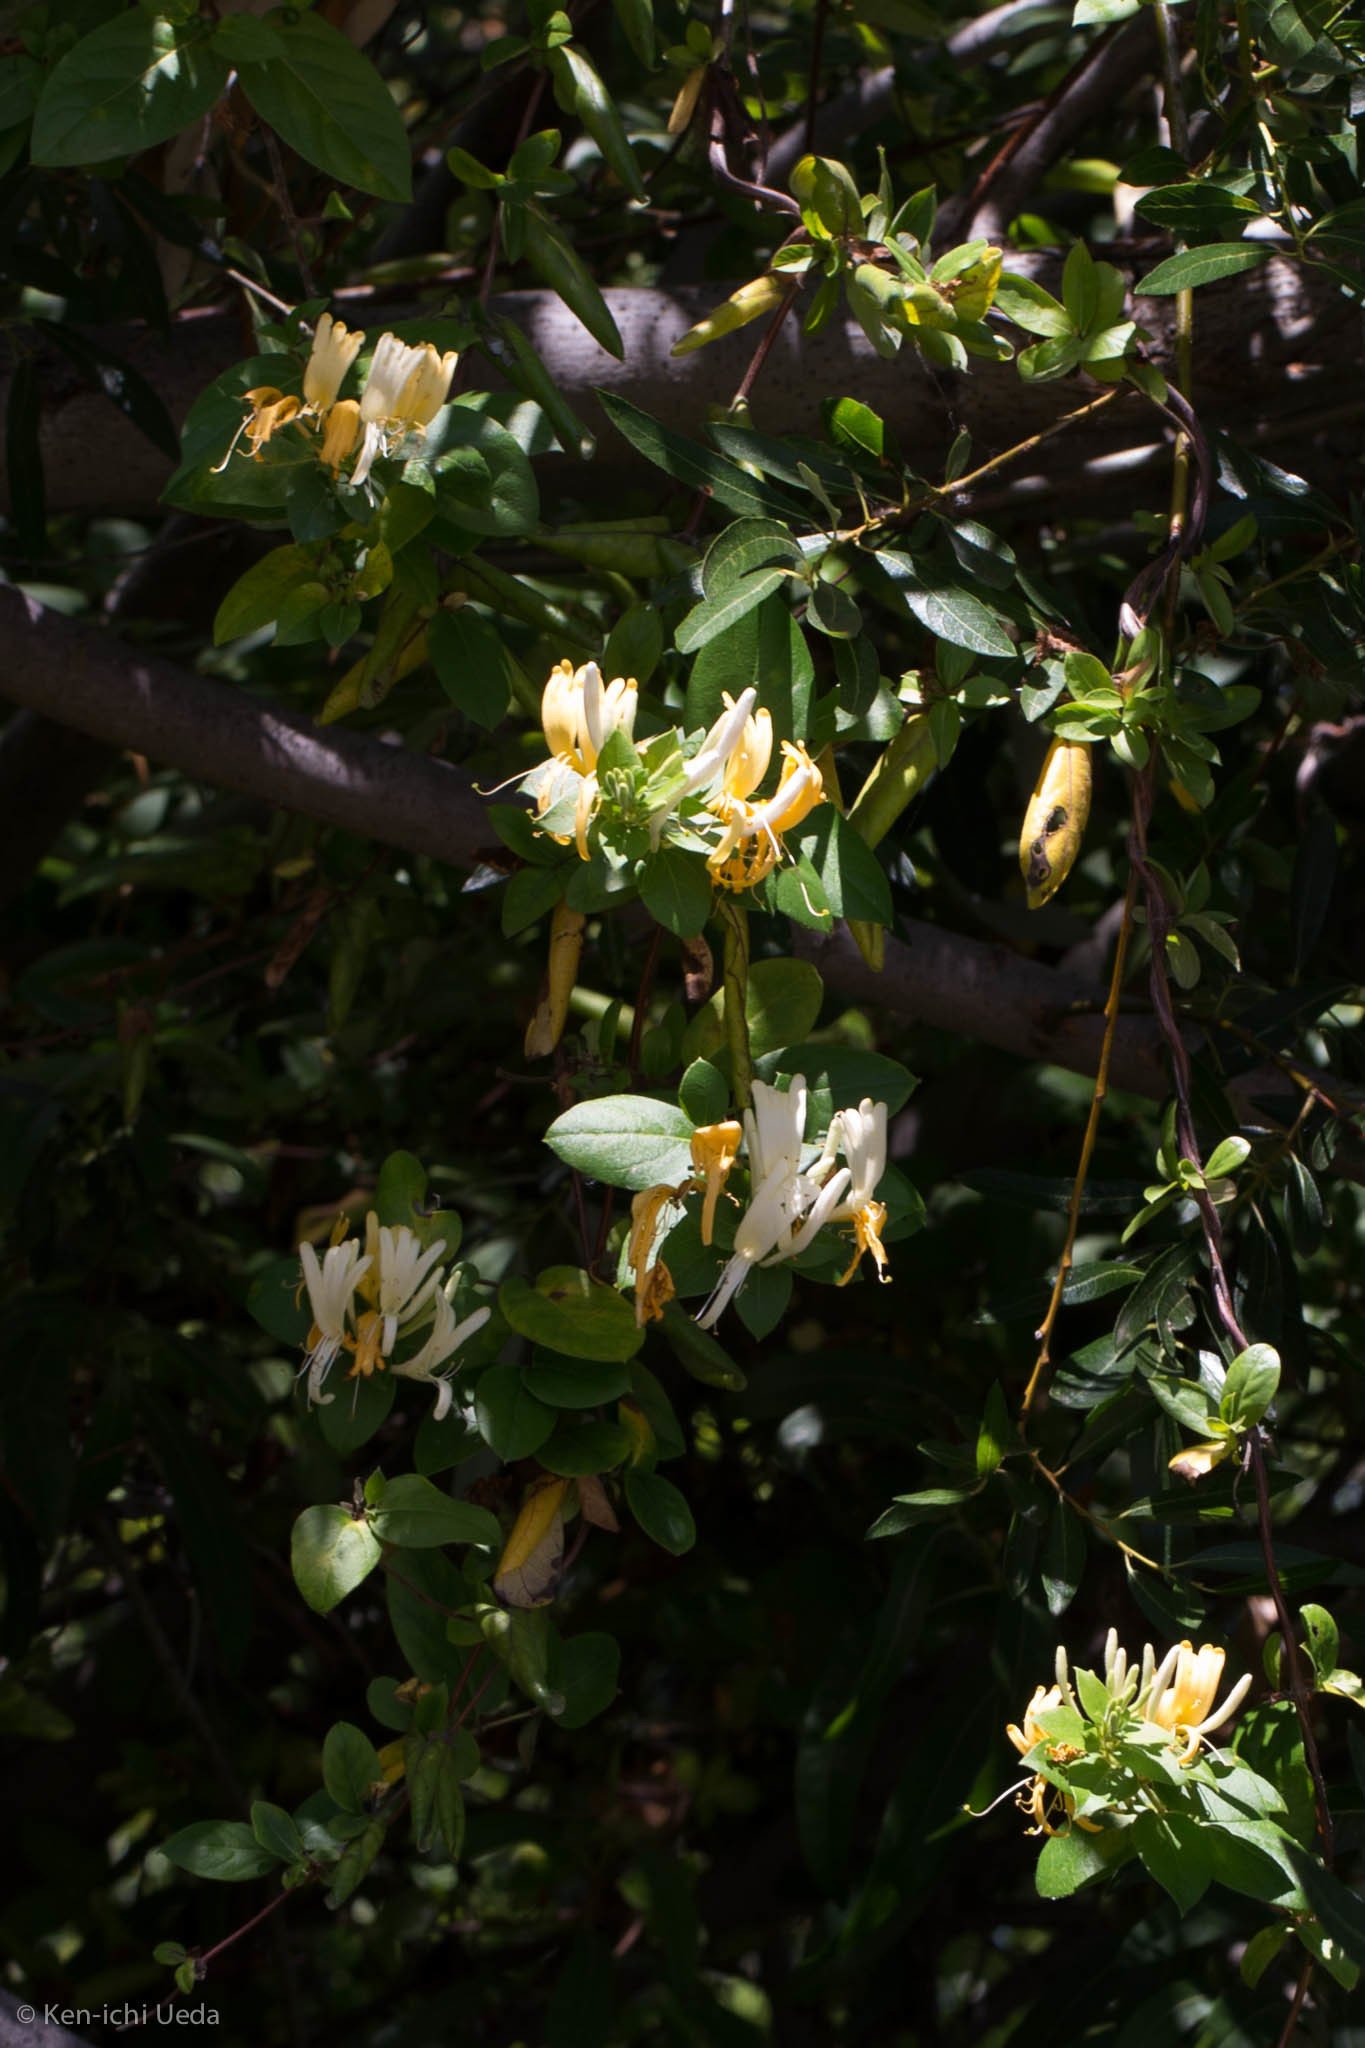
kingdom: Plantae
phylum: Tracheophyta
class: Magnoliopsida
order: Dipsacales
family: Caprifoliaceae
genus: Lonicera
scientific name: Lonicera japonica
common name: Japanese honeysuckle
